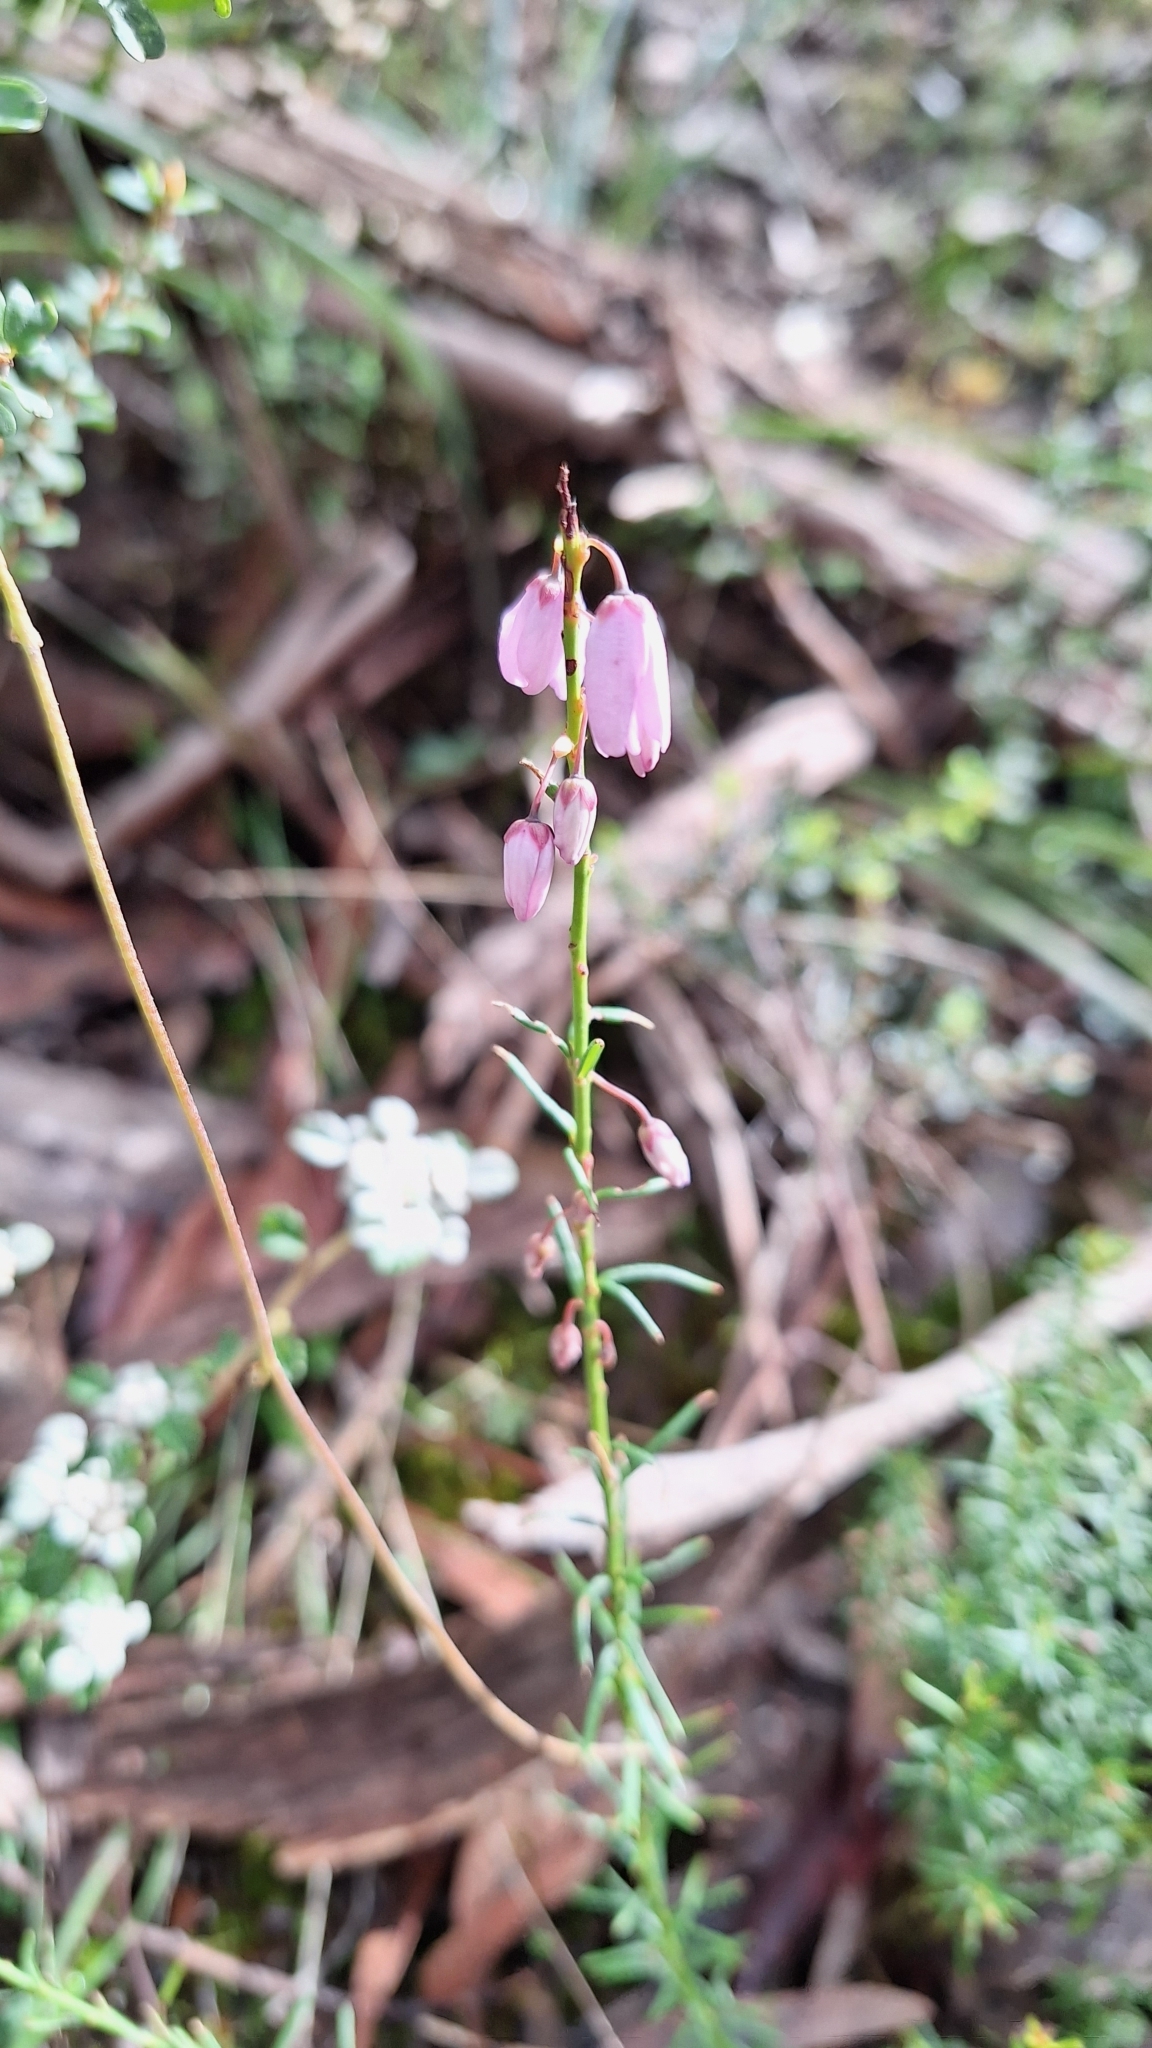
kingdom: Plantae
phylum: Tracheophyta
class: Magnoliopsida
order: Oxalidales
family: Elaeocarpaceae
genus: Tetratheca
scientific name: Tetratheca pilosa
